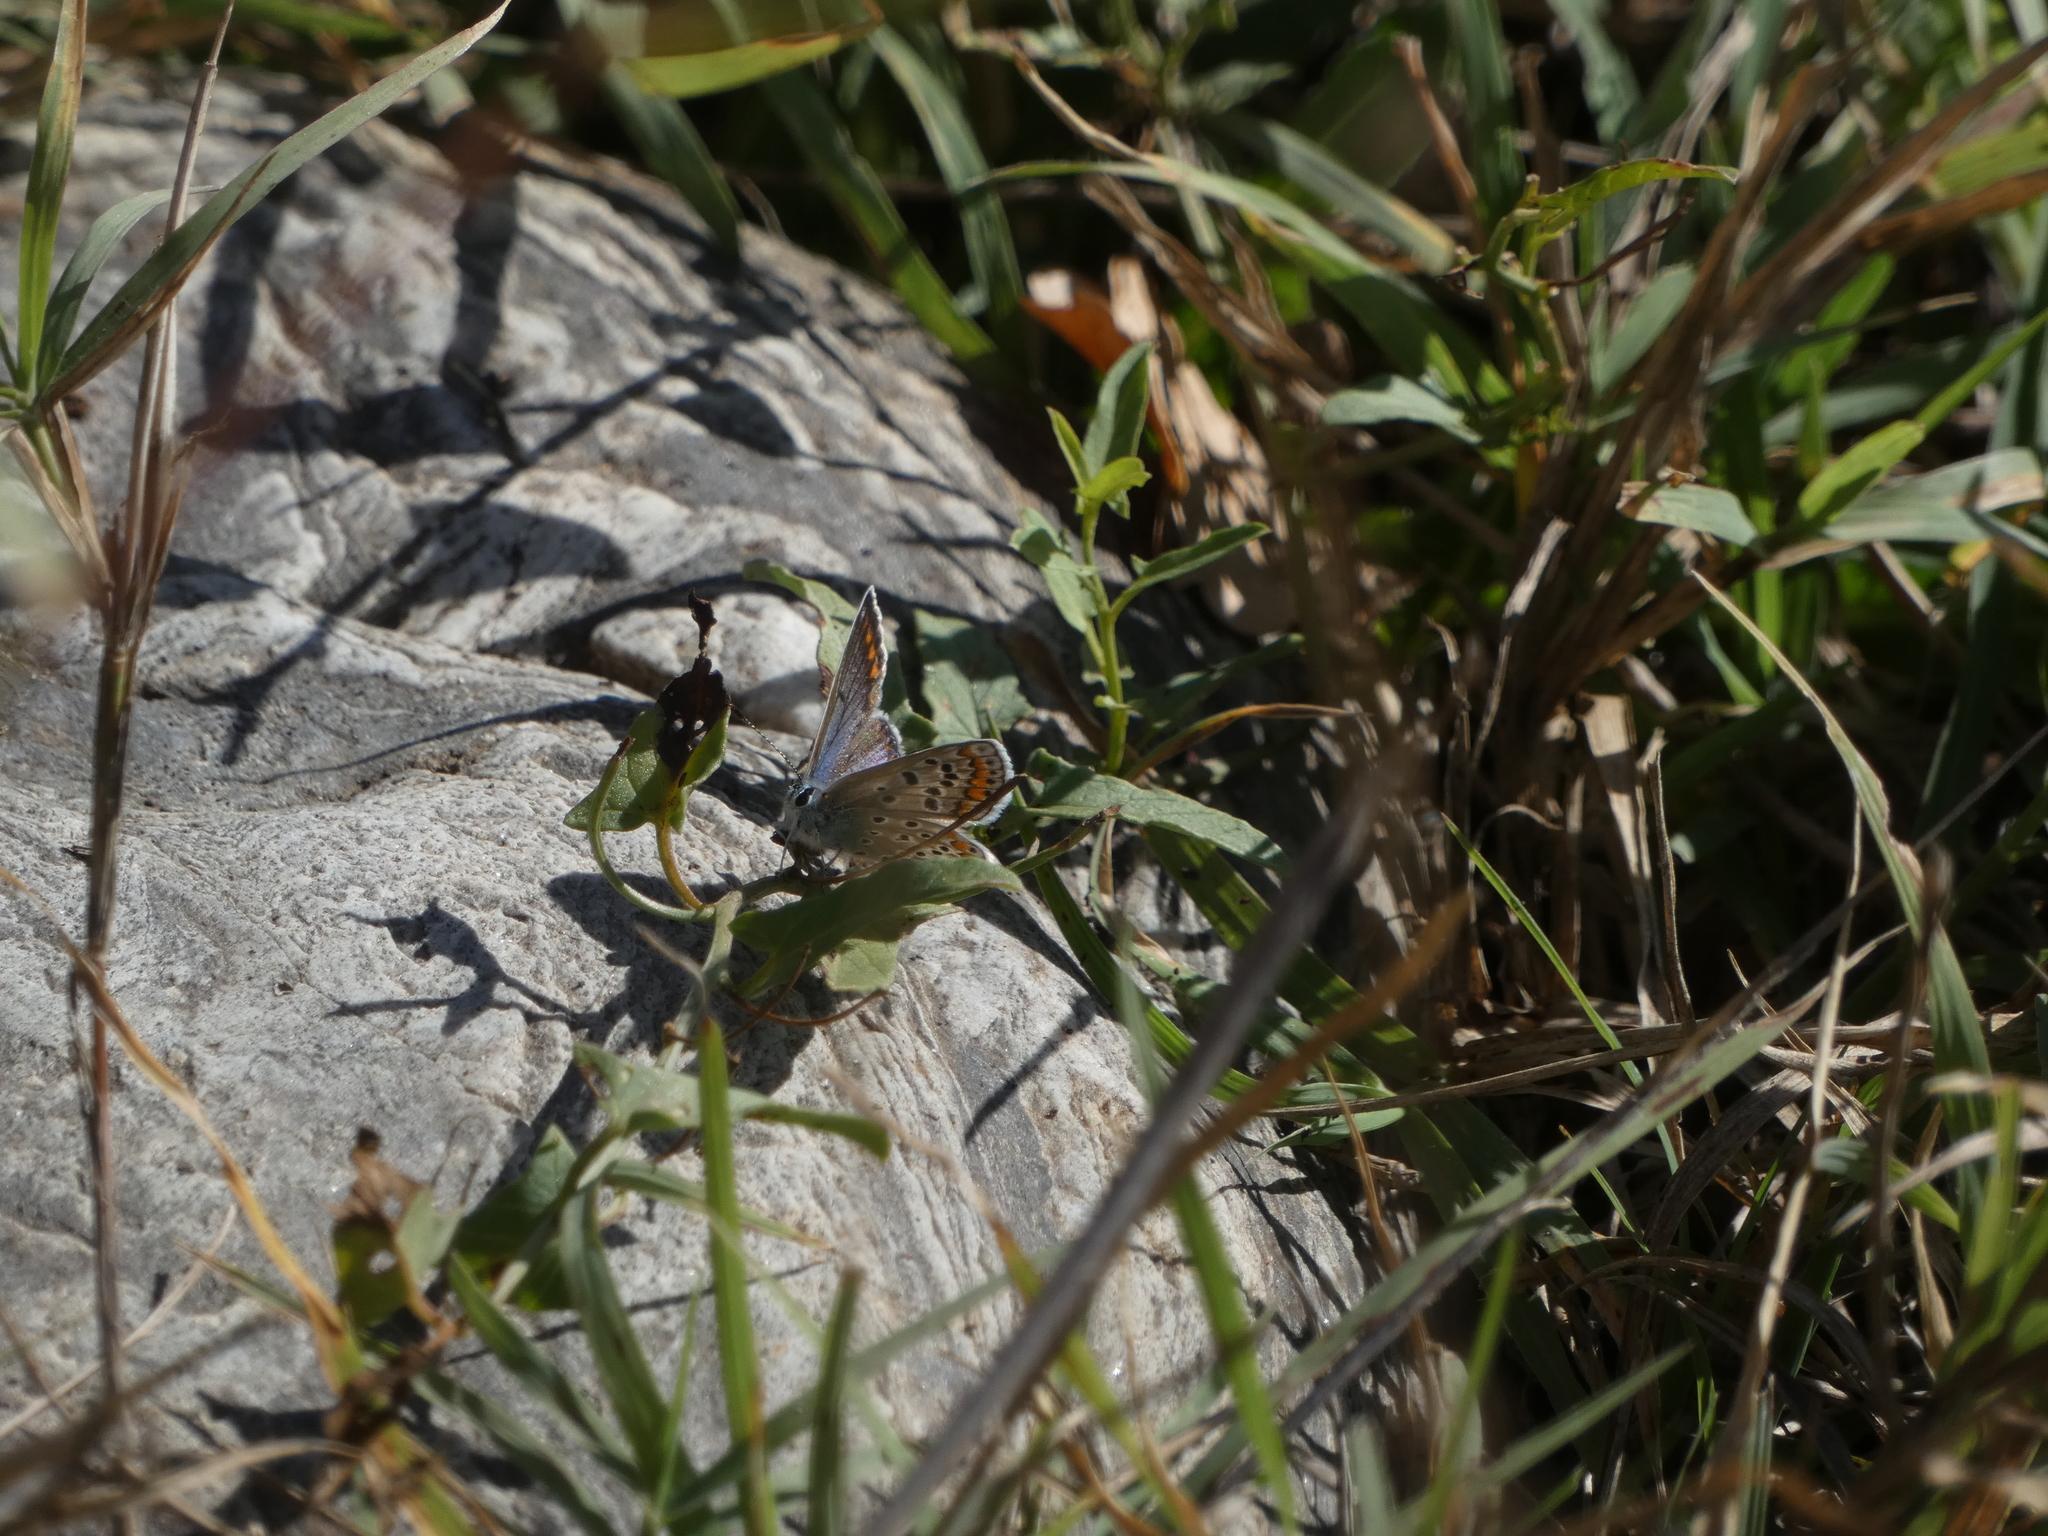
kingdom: Animalia
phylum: Arthropoda
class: Insecta
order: Lepidoptera
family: Lycaenidae
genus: Polyommatus
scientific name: Polyommatus icarus
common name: Common blue
